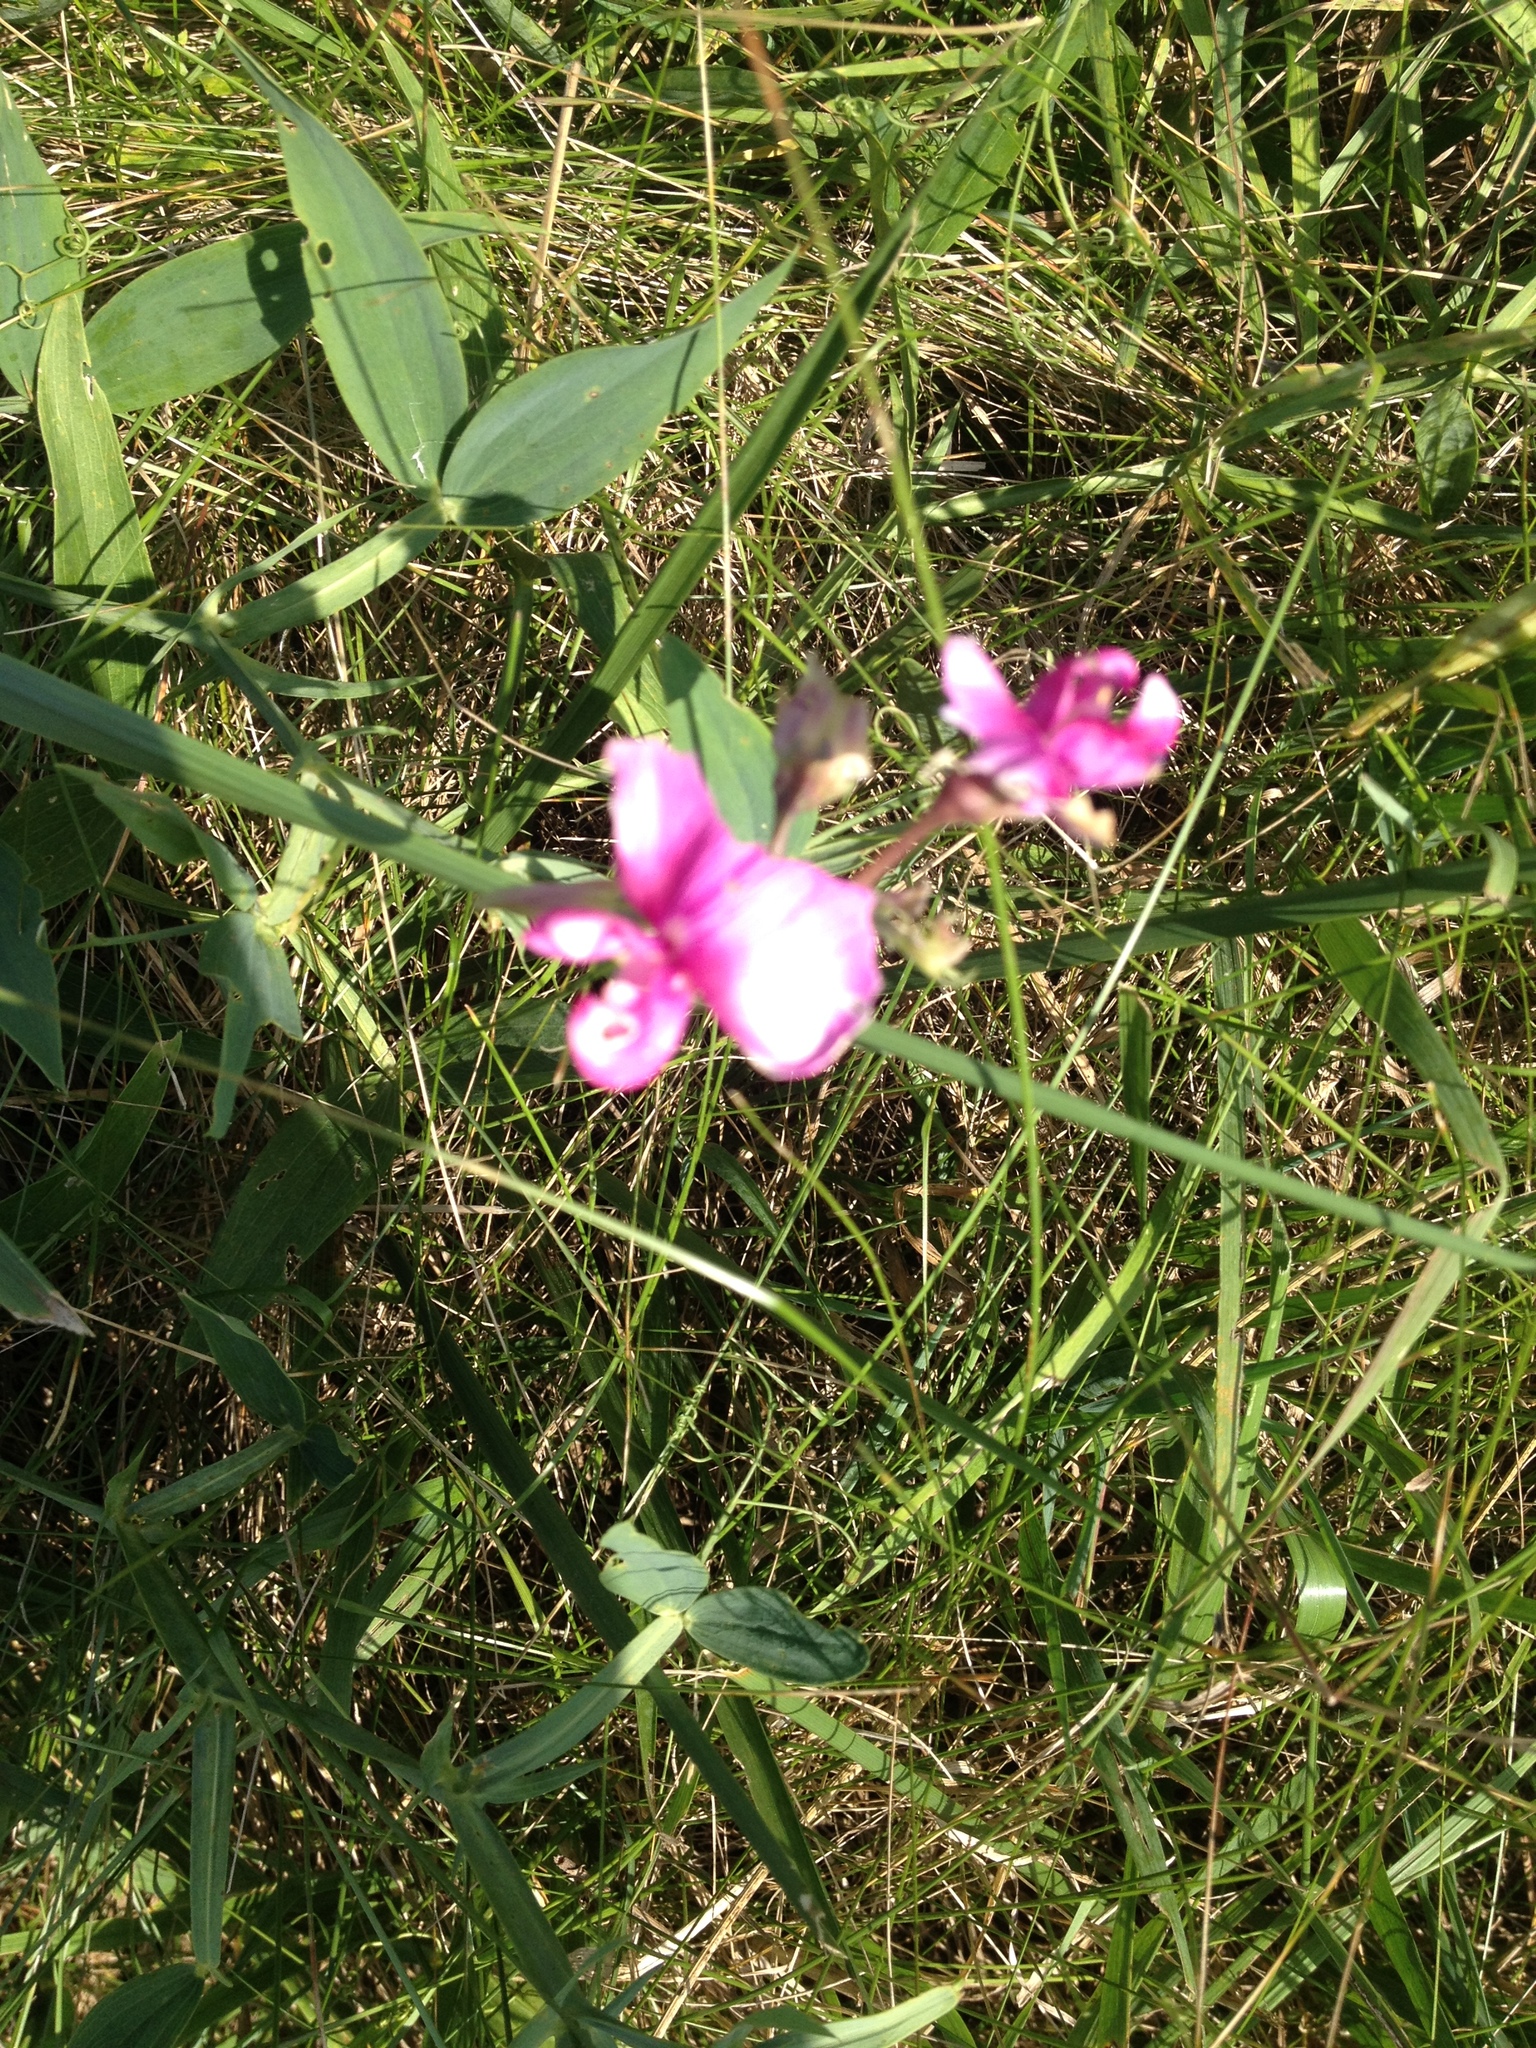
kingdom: Plantae
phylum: Tracheophyta
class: Magnoliopsida
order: Fabales
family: Fabaceae
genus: Lathyrus
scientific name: Lathyrus latifolius
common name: Perennial pea
